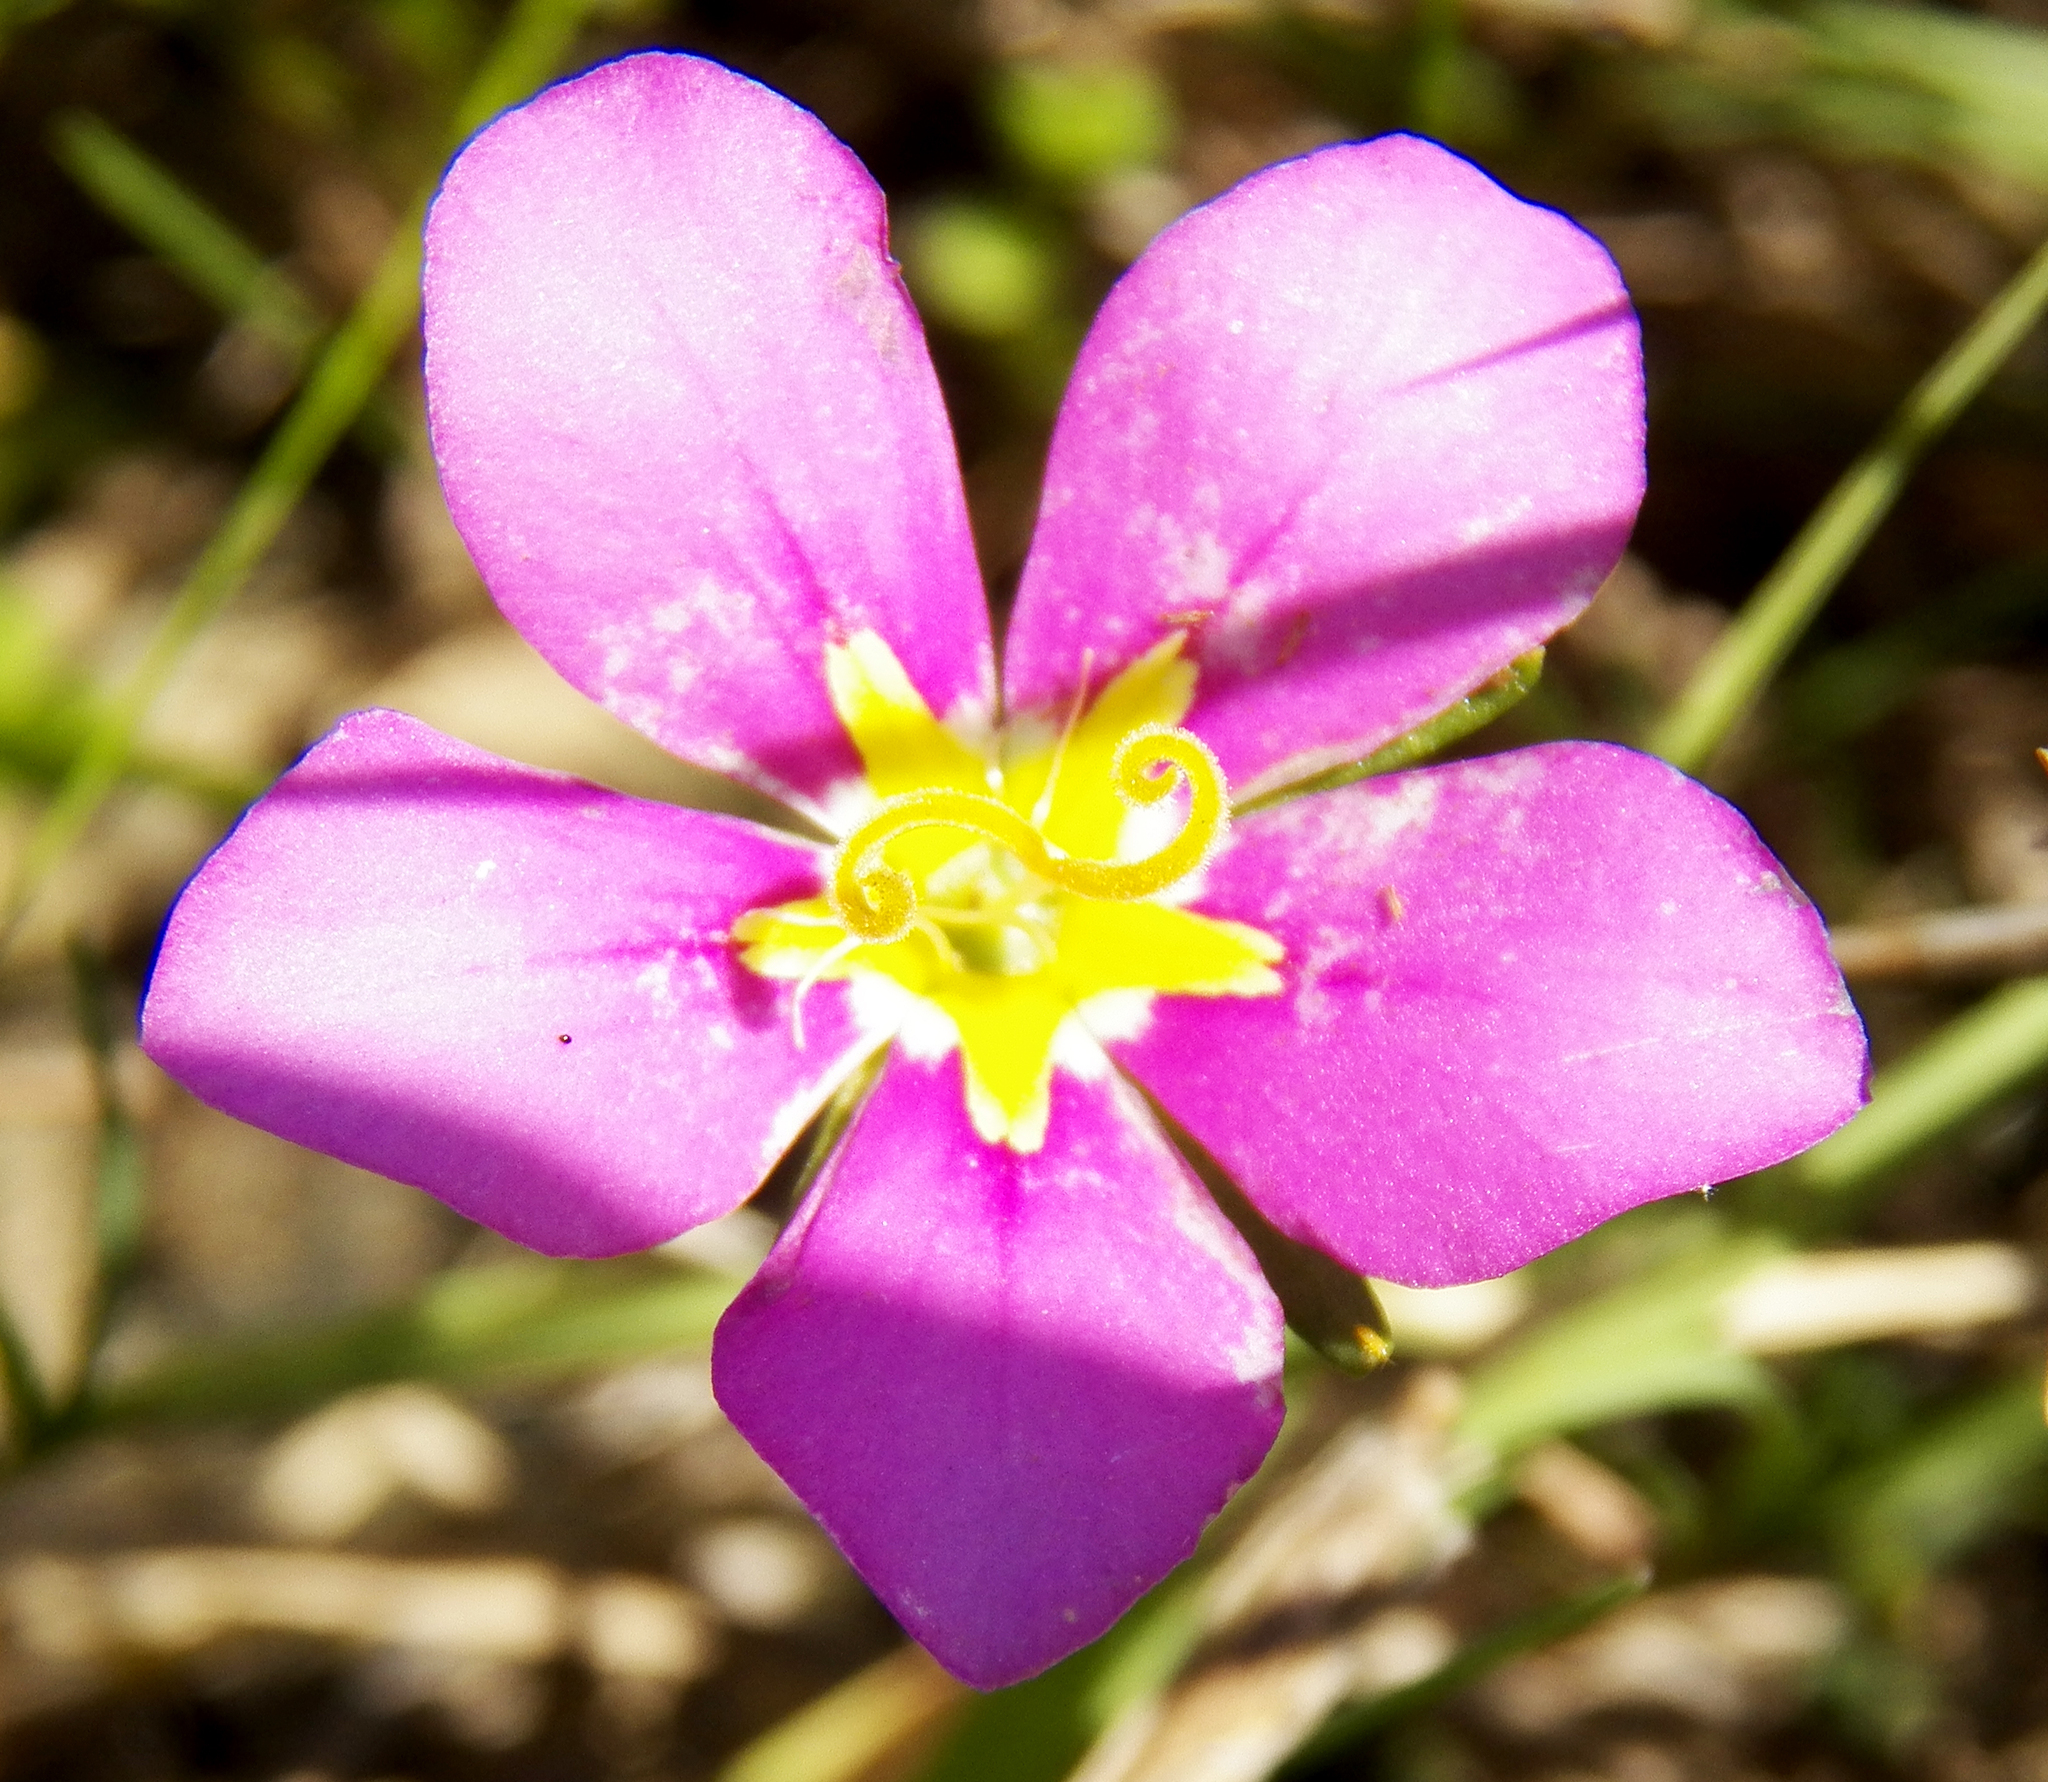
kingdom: Plantae
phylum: Tracheophyta
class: Magnoliopsida
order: Gentianales
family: Gentianaceae
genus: Sabatia
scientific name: Sabatia campestris
